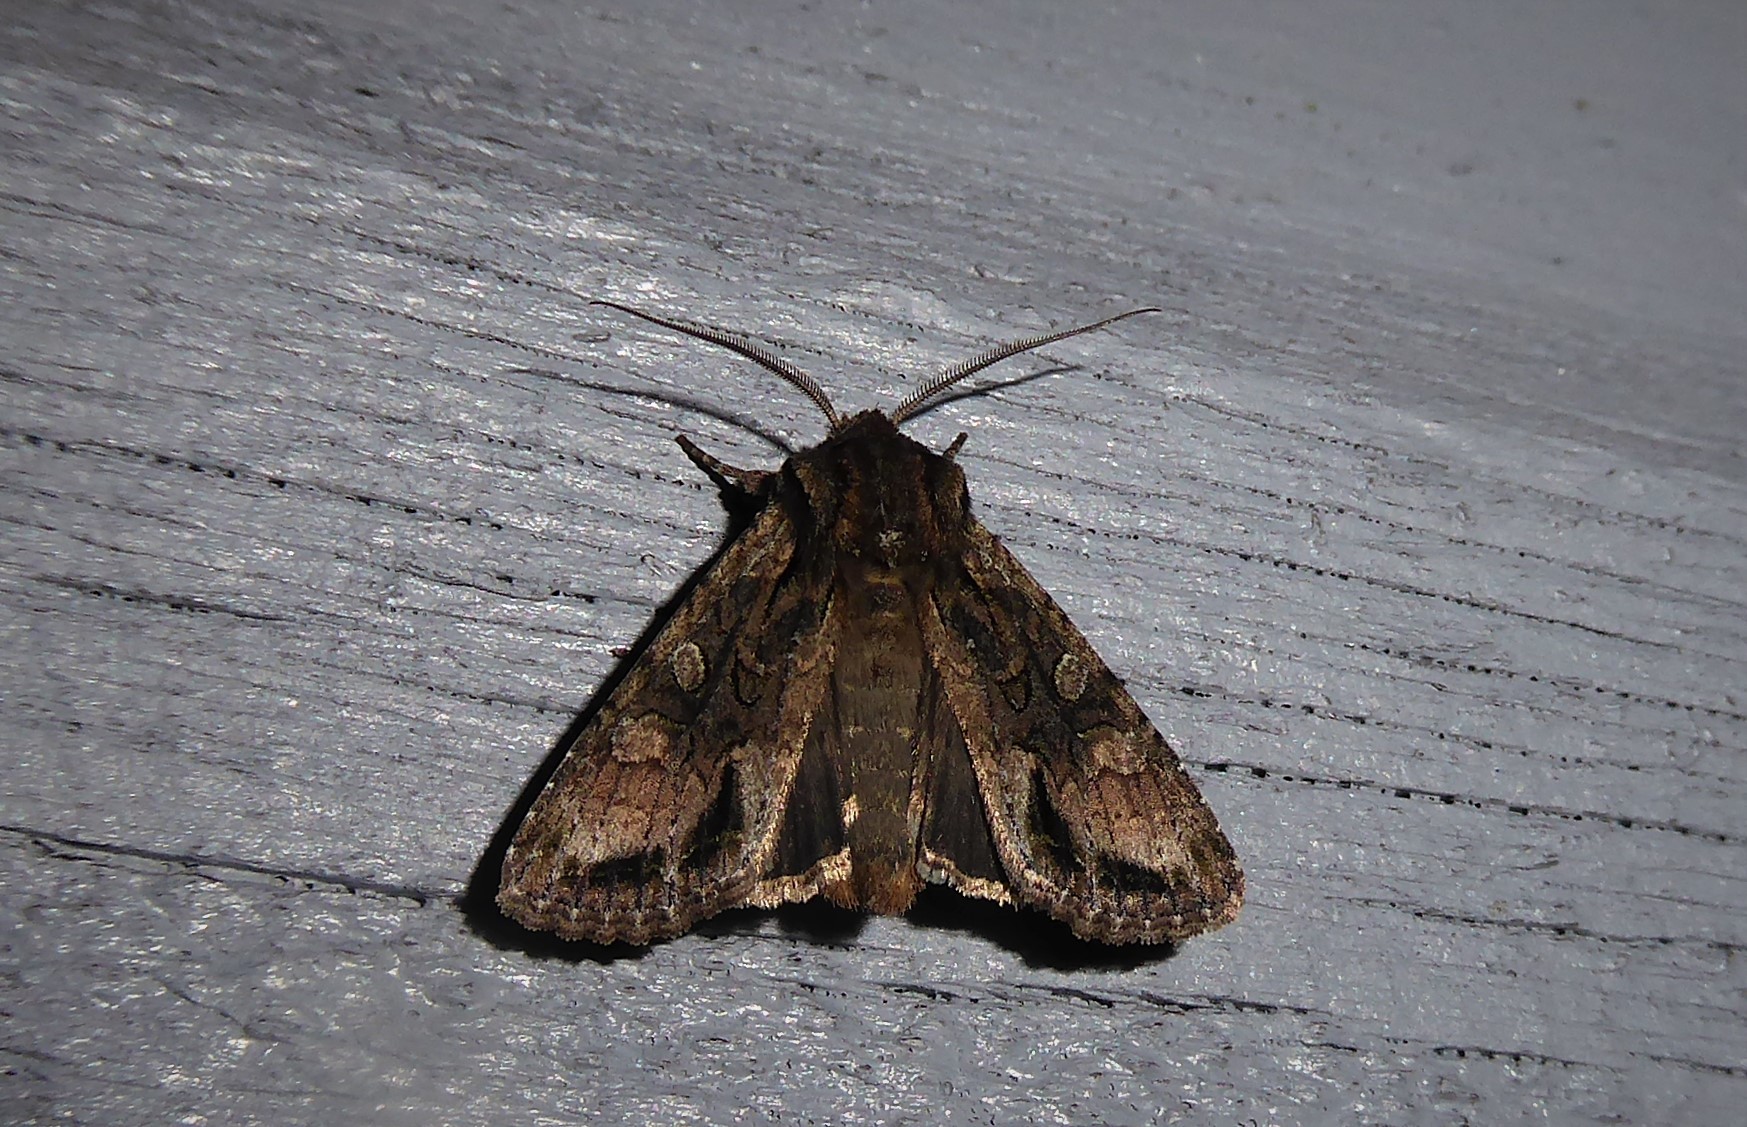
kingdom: Animalia
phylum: Arthropoda
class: Insecta
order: Lepidoptera
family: Noctuidae
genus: Ichneutica
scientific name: Ichneutica mutans
